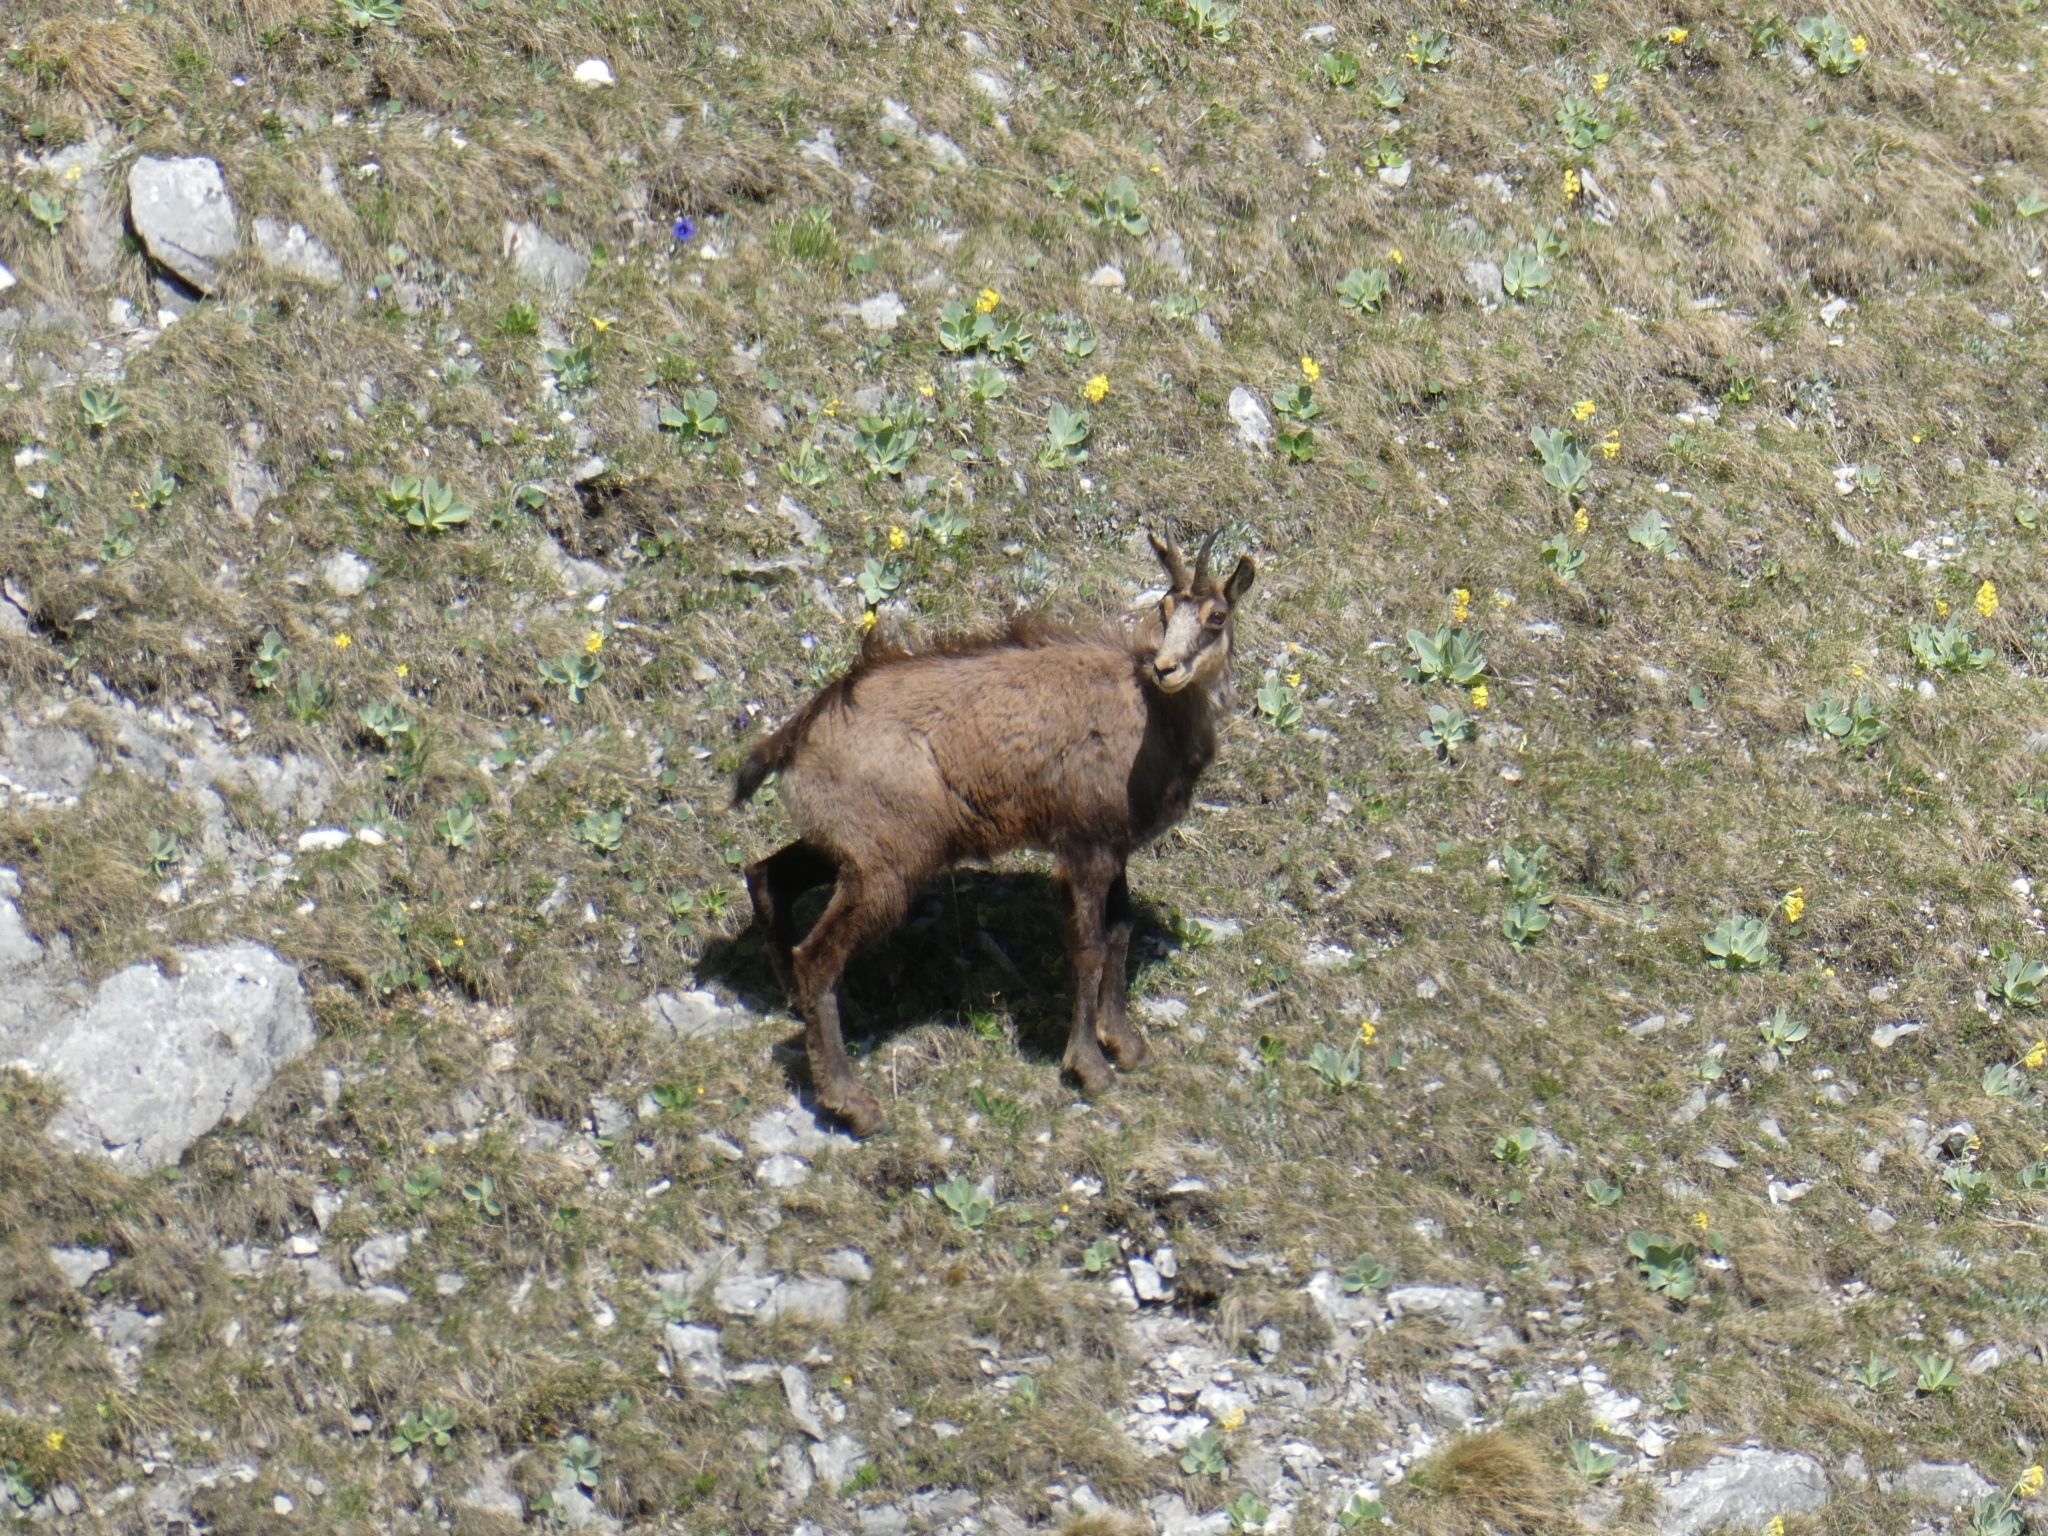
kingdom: Animalia
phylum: Chordata
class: Mammalia
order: Artiodactyla
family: Bovidae
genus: Rupicapra
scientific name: Rupicapra rupicapra
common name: Chamois
